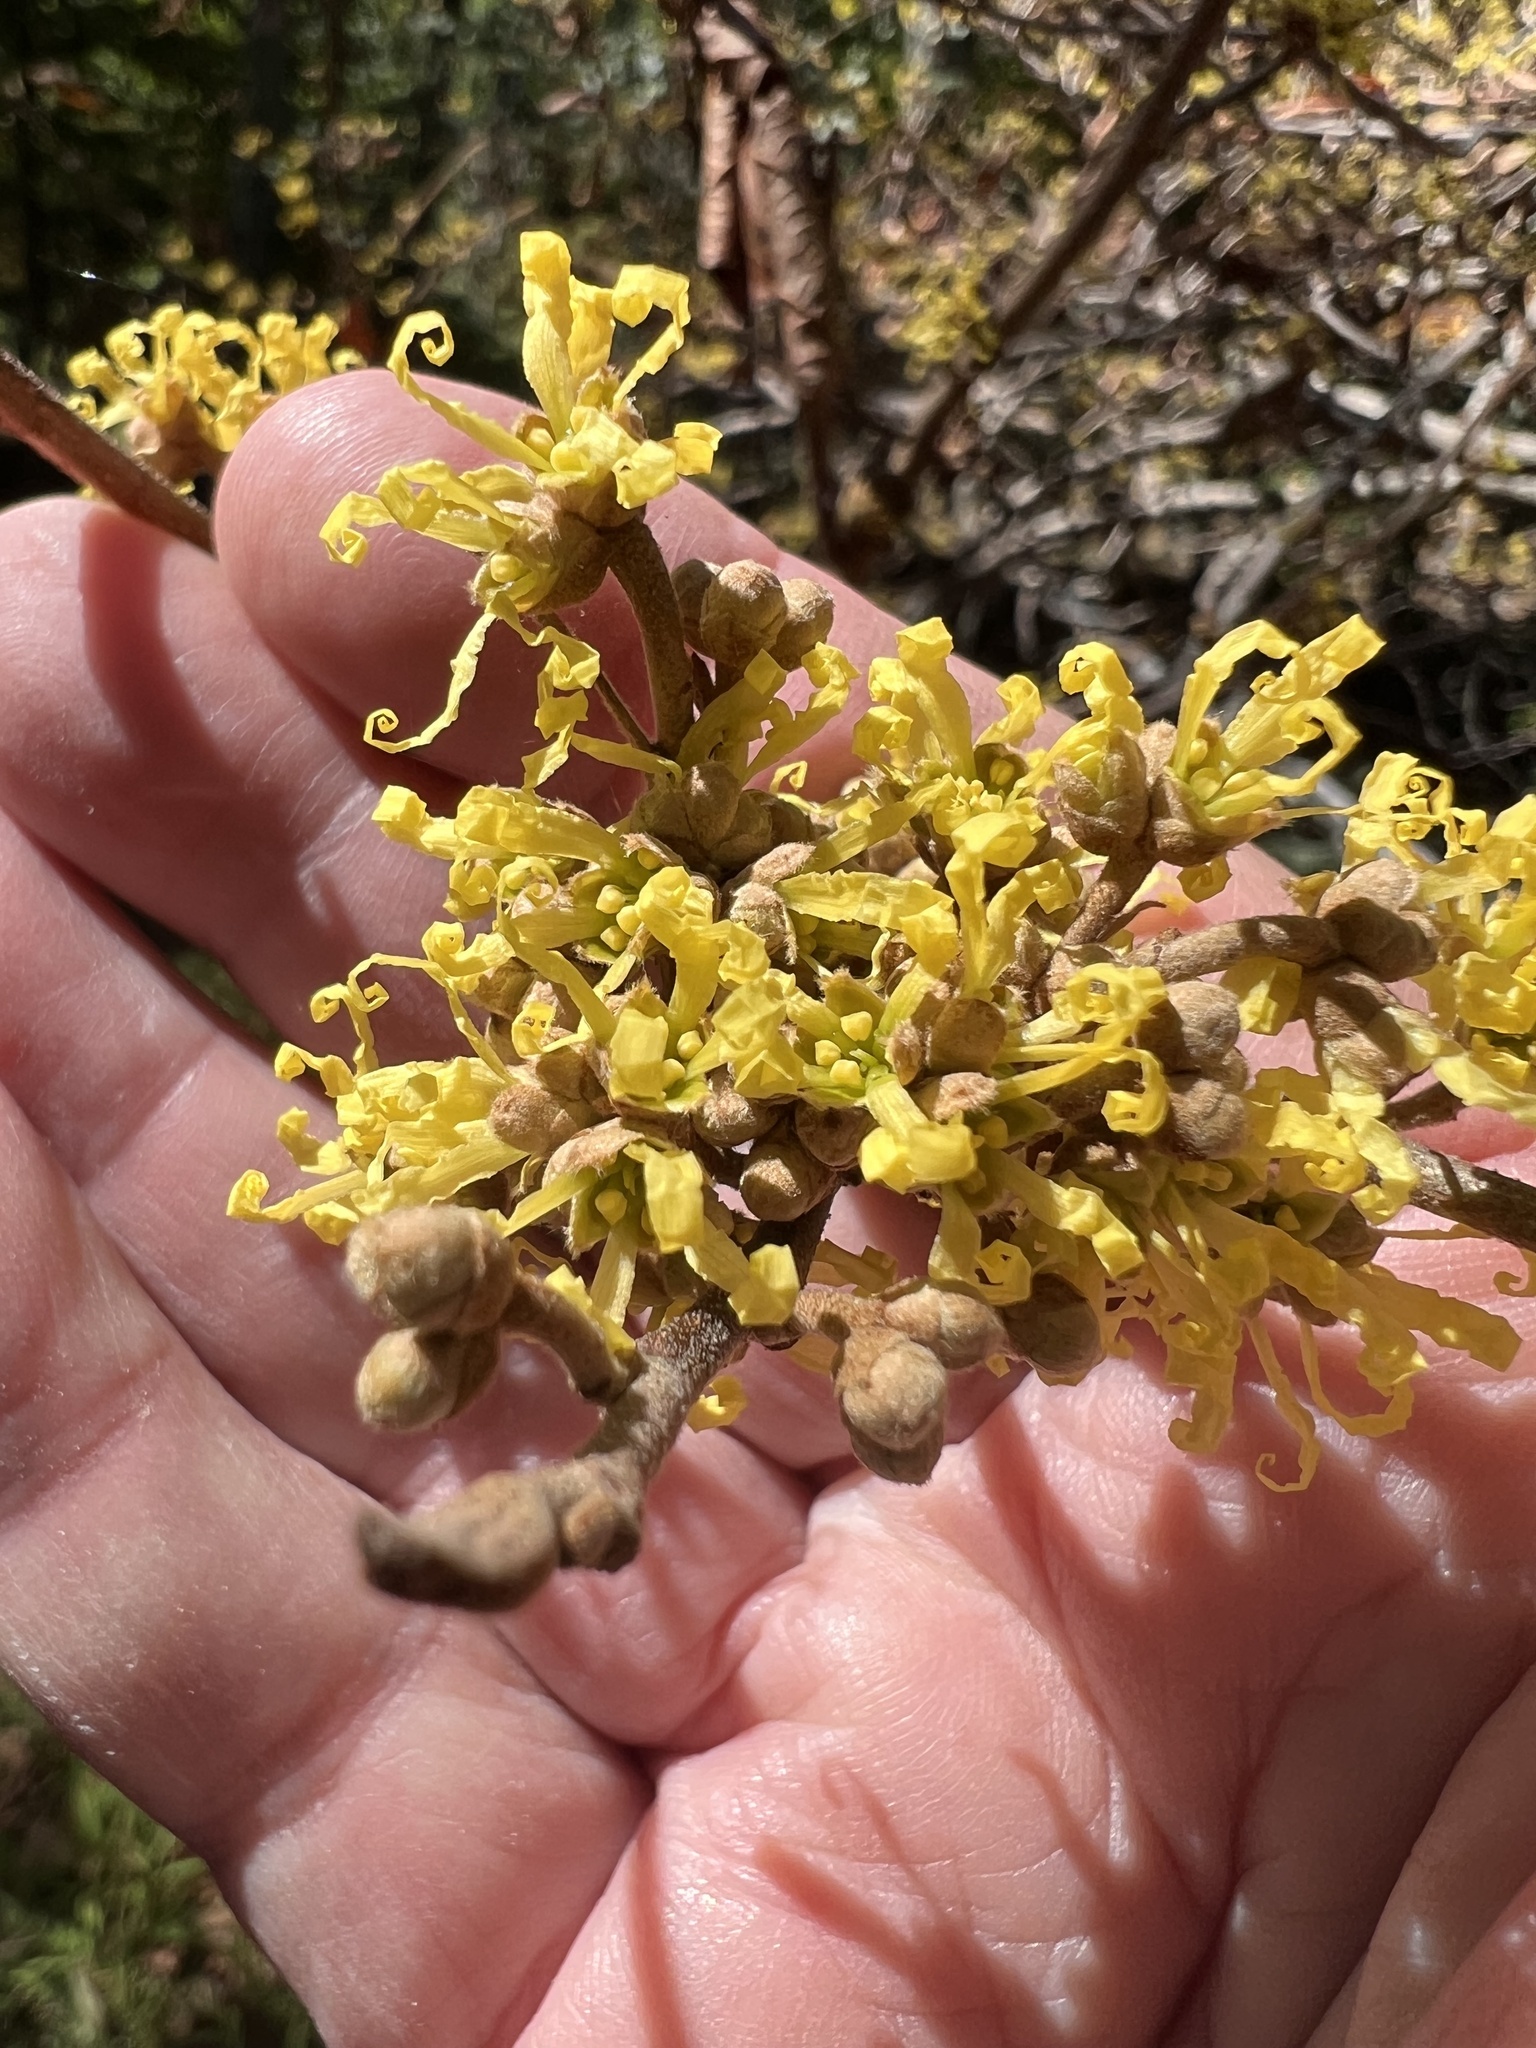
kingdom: Plantae
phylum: Tracheophyta
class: Magnoliopsida
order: Saxifragales
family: Hamamelidaceae
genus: Hamamelis
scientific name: Hamamelis virginiana
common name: Witch-hazel
